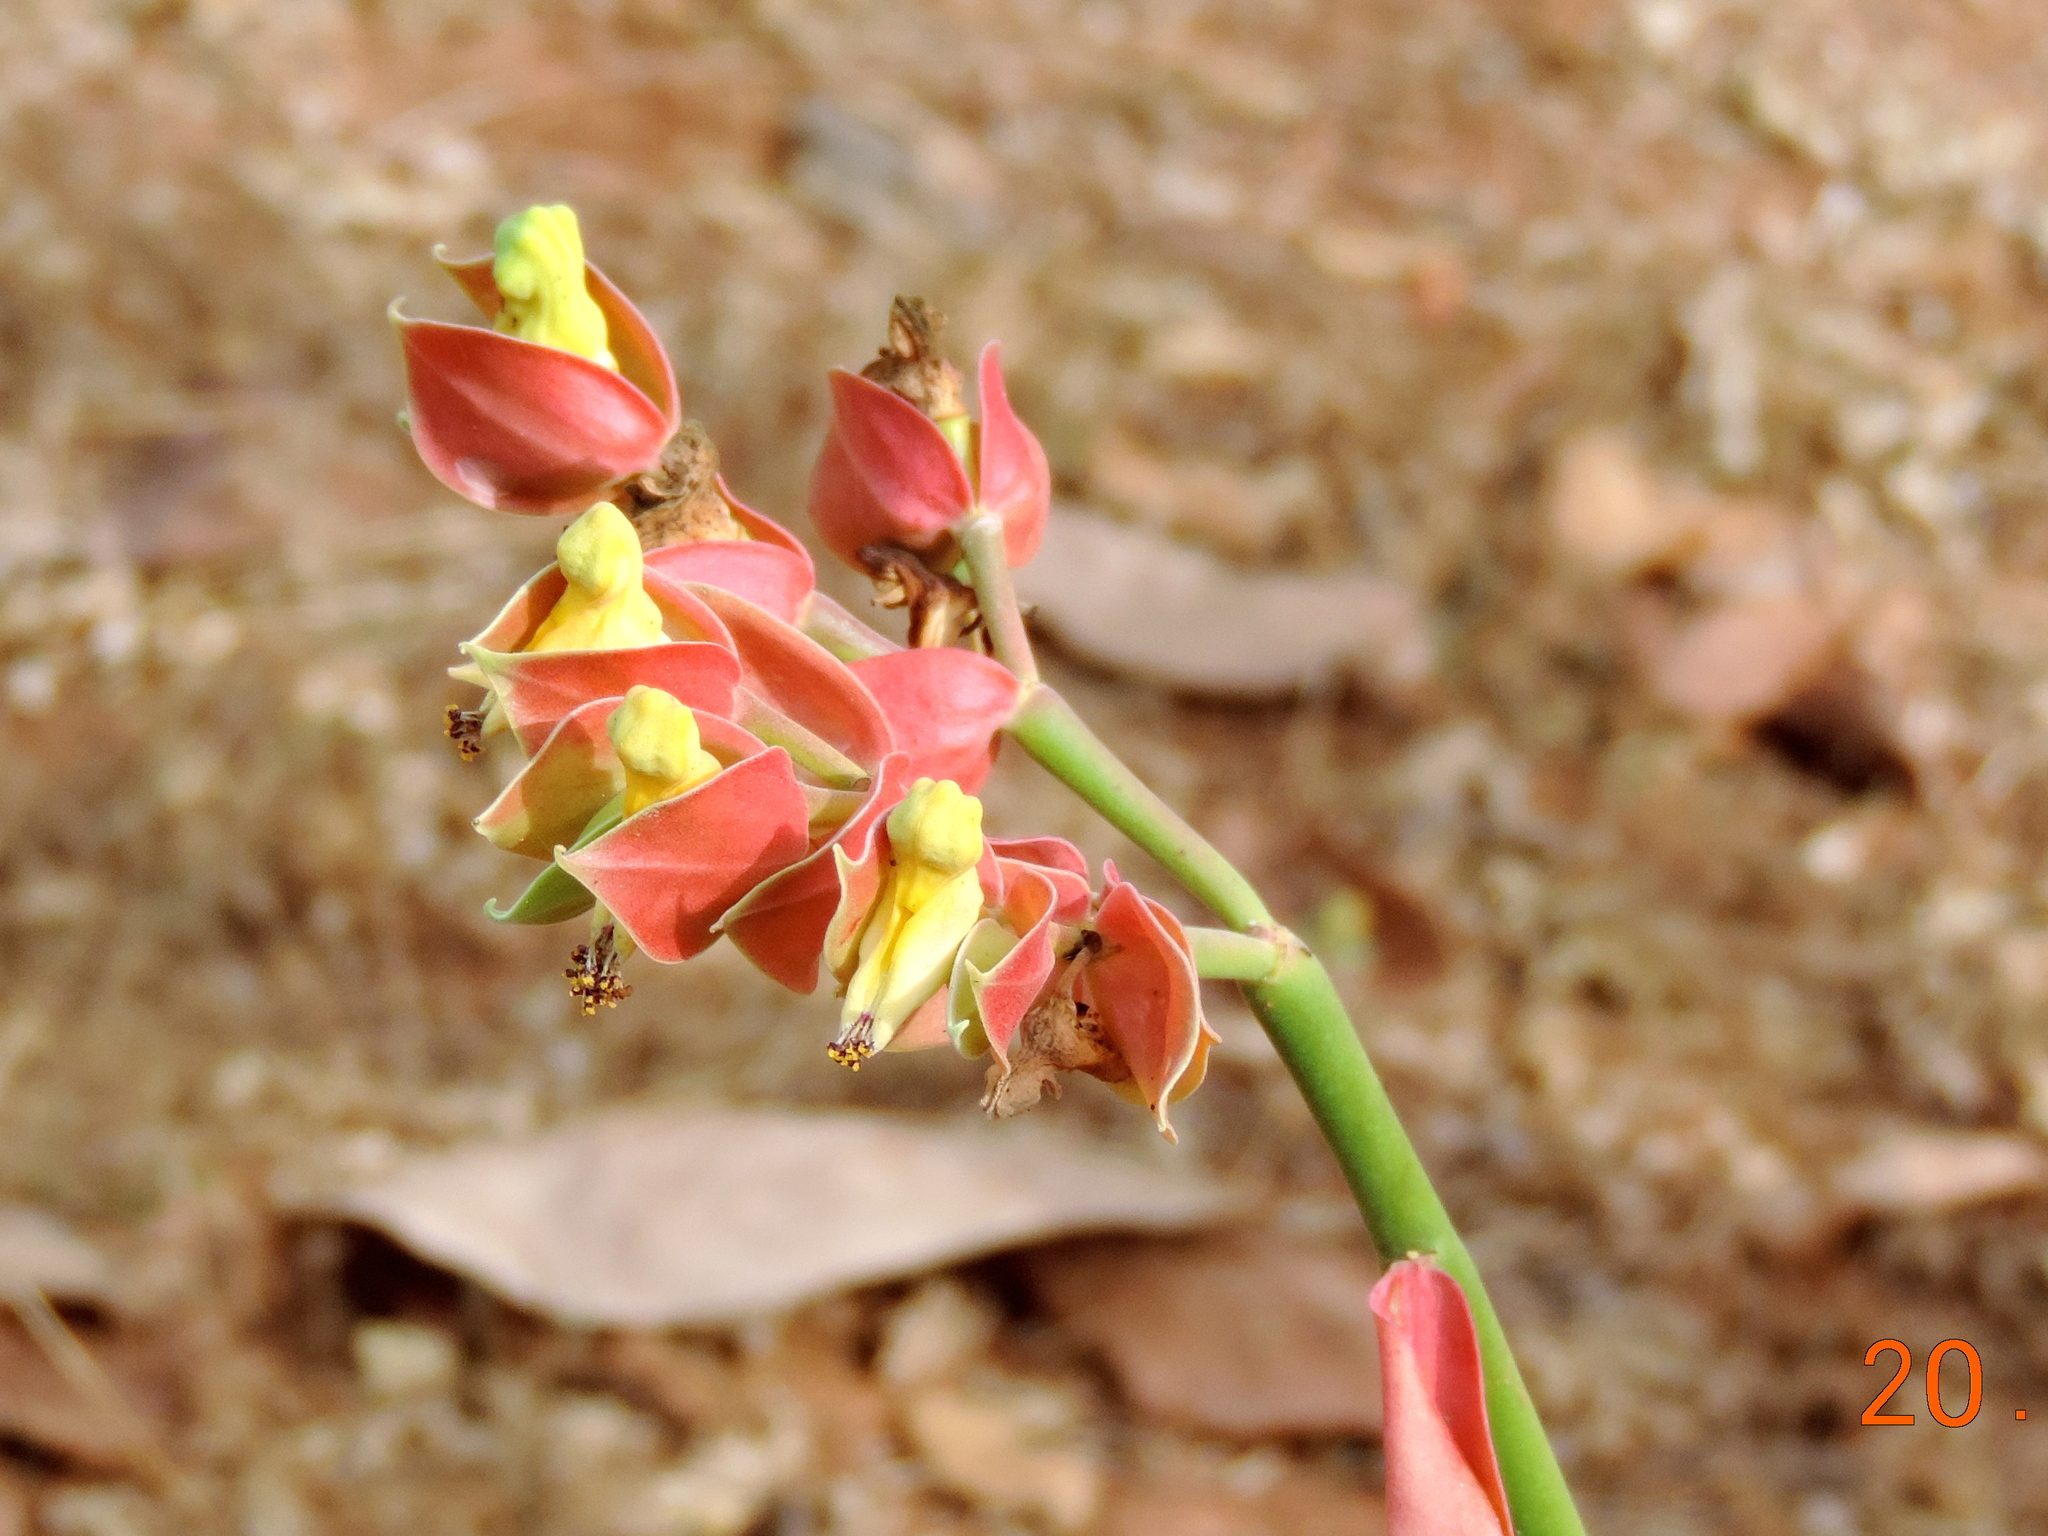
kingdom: Plantae
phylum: Tracheophyta
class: Magnoliopsida
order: Malpighiales
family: Euphorbiaceae
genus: Euphorbia
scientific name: Euphorbia bracteata
